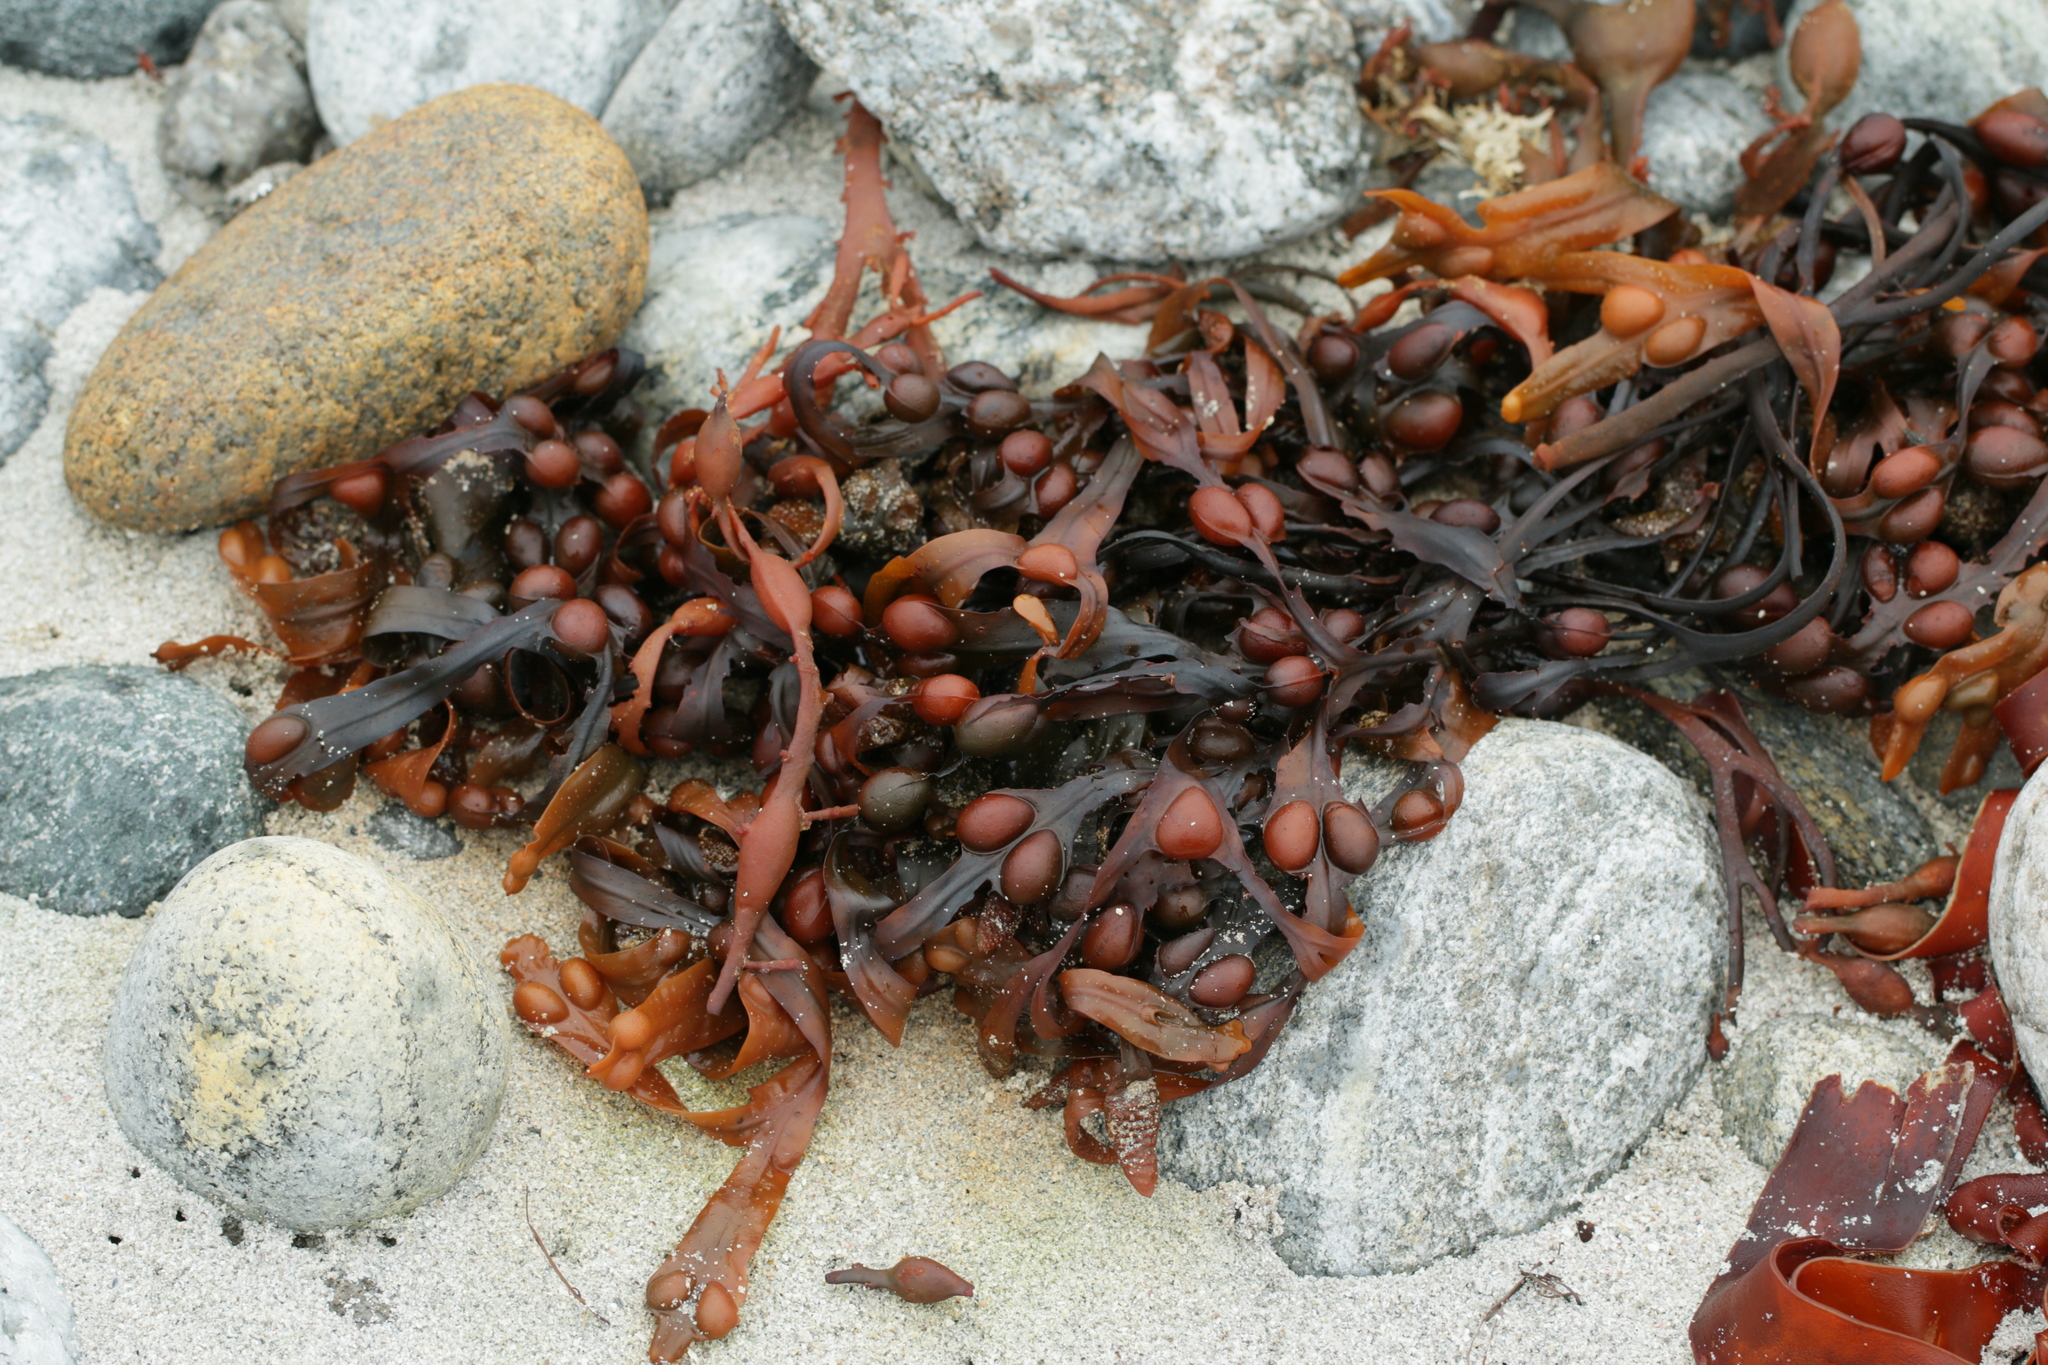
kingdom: Chromista
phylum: Ochrophyta
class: Phaeophyceae
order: Fucales
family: Fucaceae
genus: Fucus
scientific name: Fucus vesiculosus
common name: Bladder wrack
